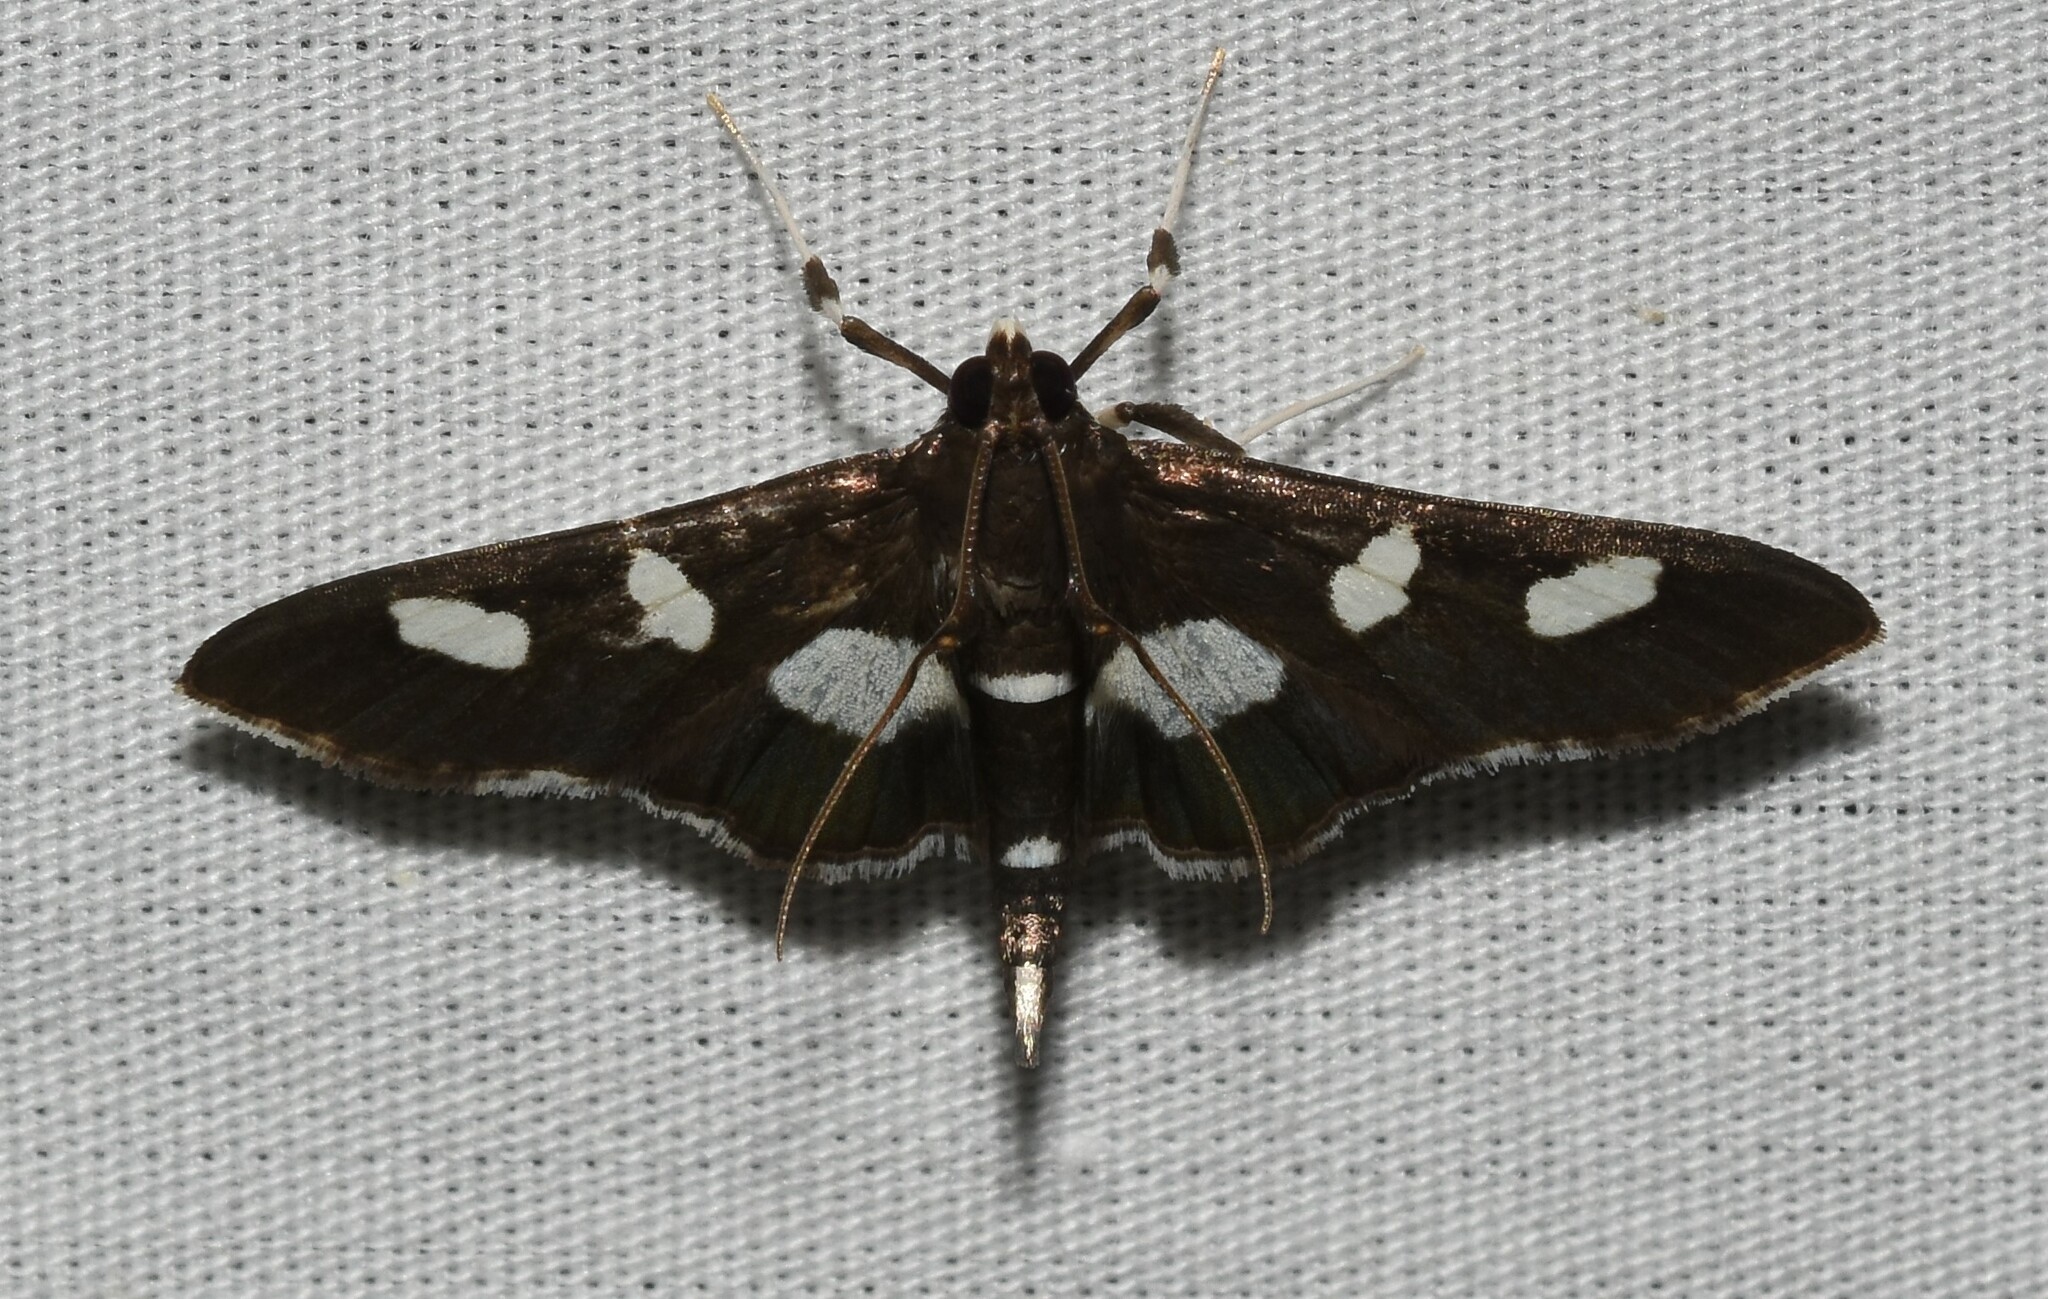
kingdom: Animalia
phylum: Arthropoda
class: Insecta
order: Lepidoptera
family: Crambidae
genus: Desmia
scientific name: Desmia
